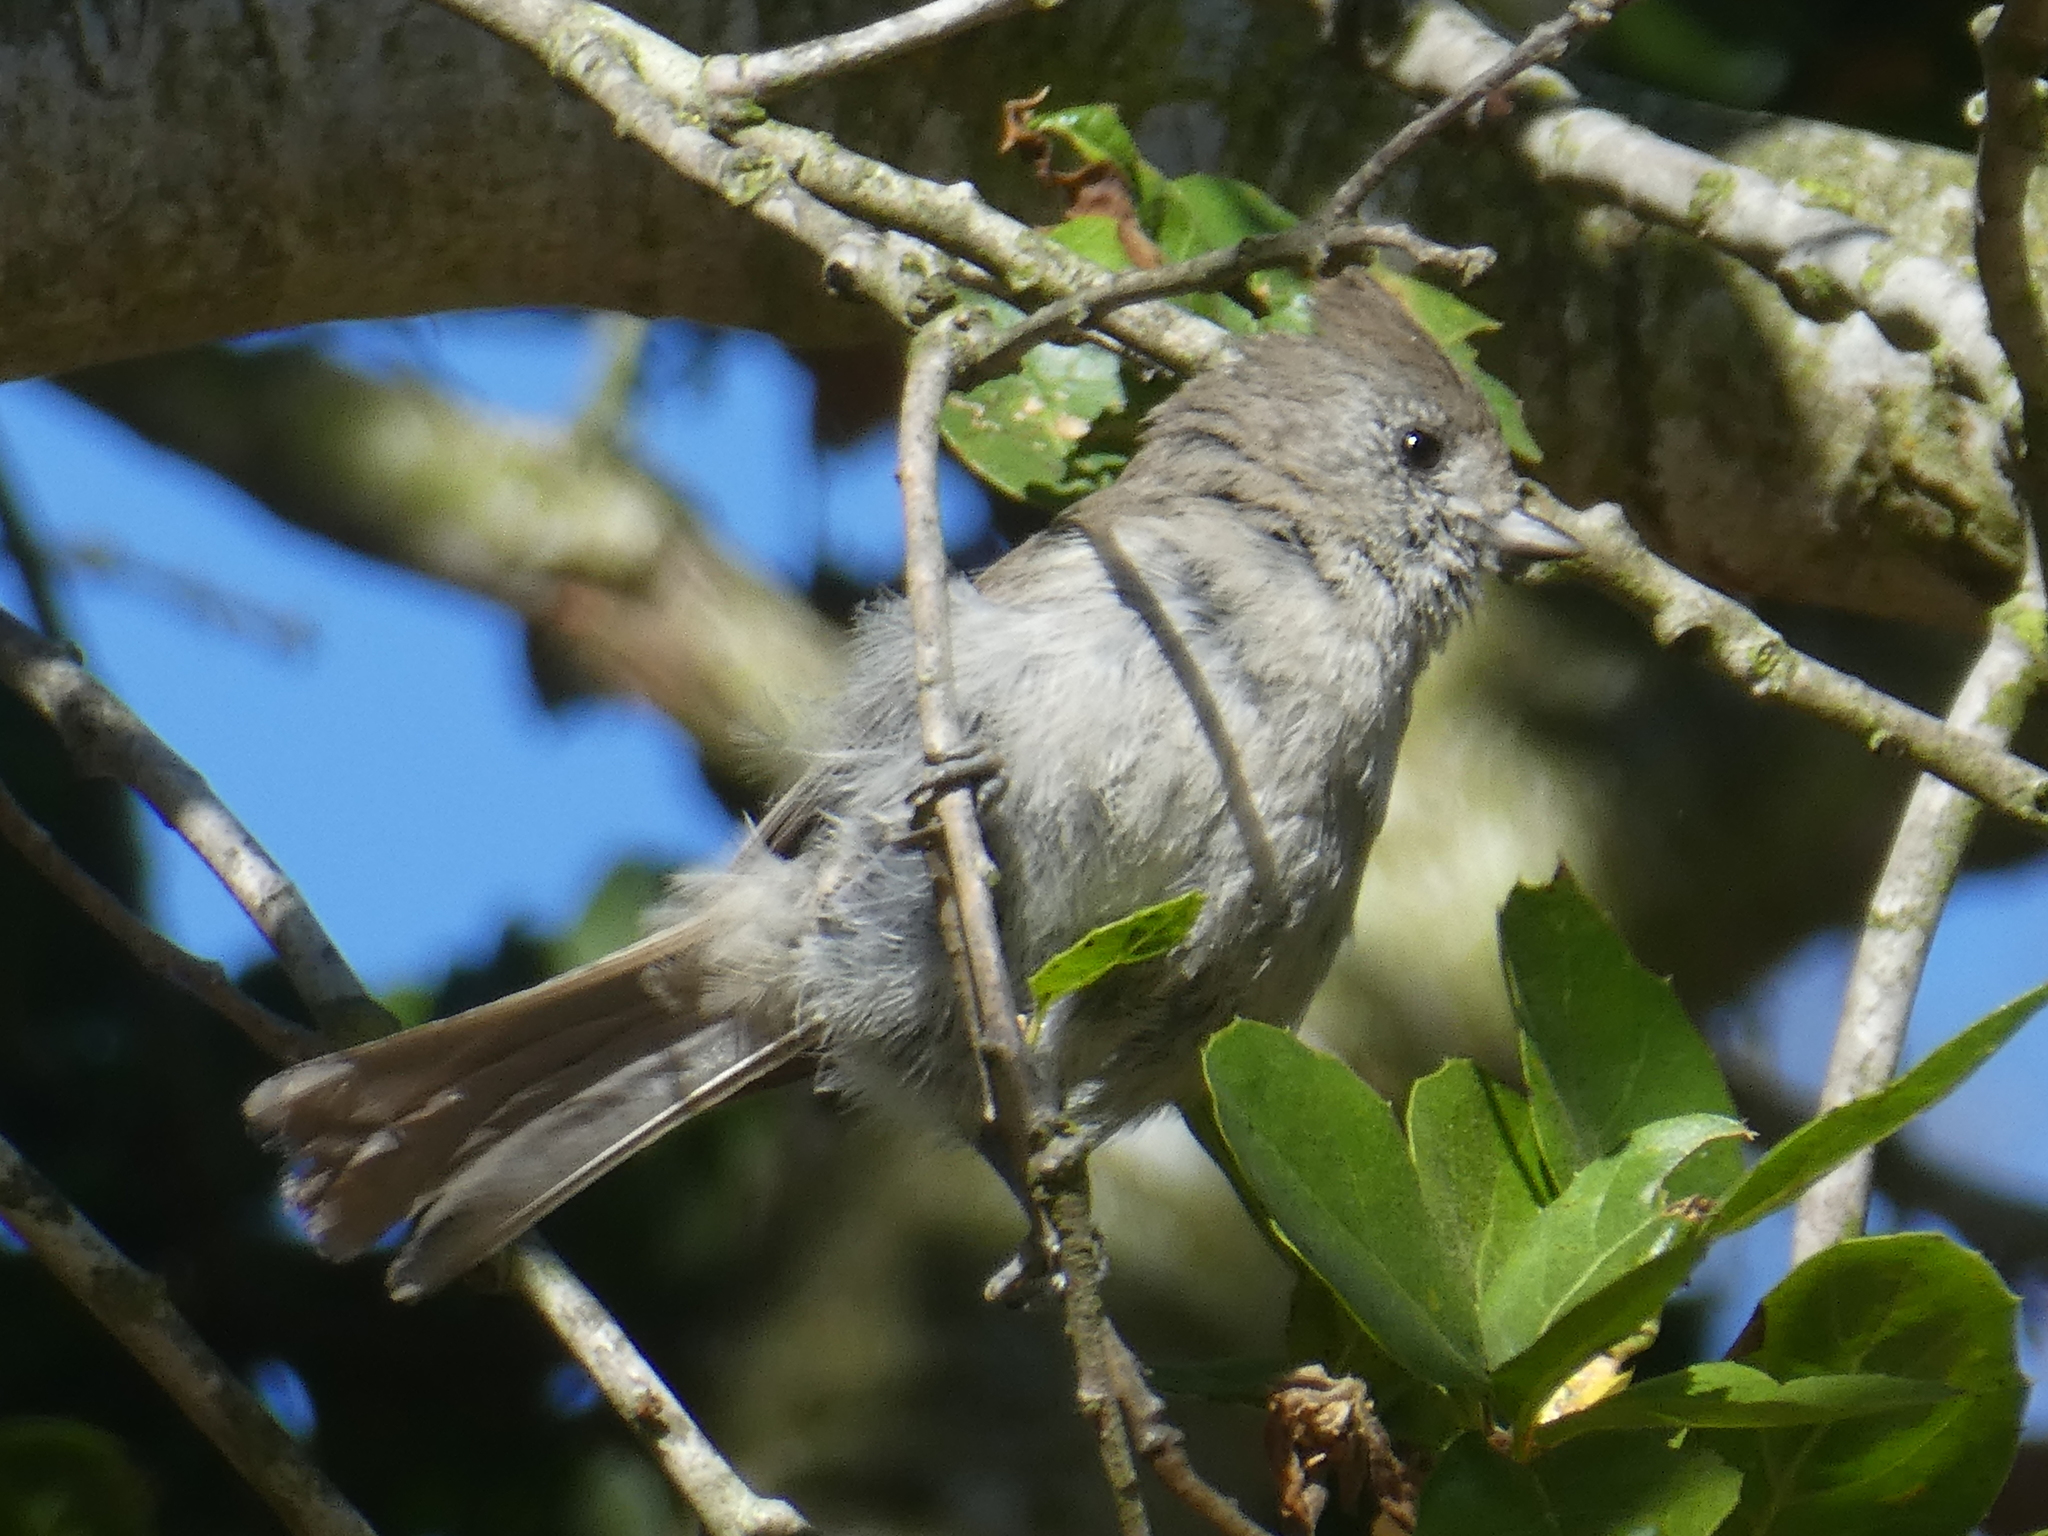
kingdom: Animalia
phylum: Chordata
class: Aves
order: Passeriformes
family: Paridae
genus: Baeolophus
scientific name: Baeolophus inornatus
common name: Oak titmouse
